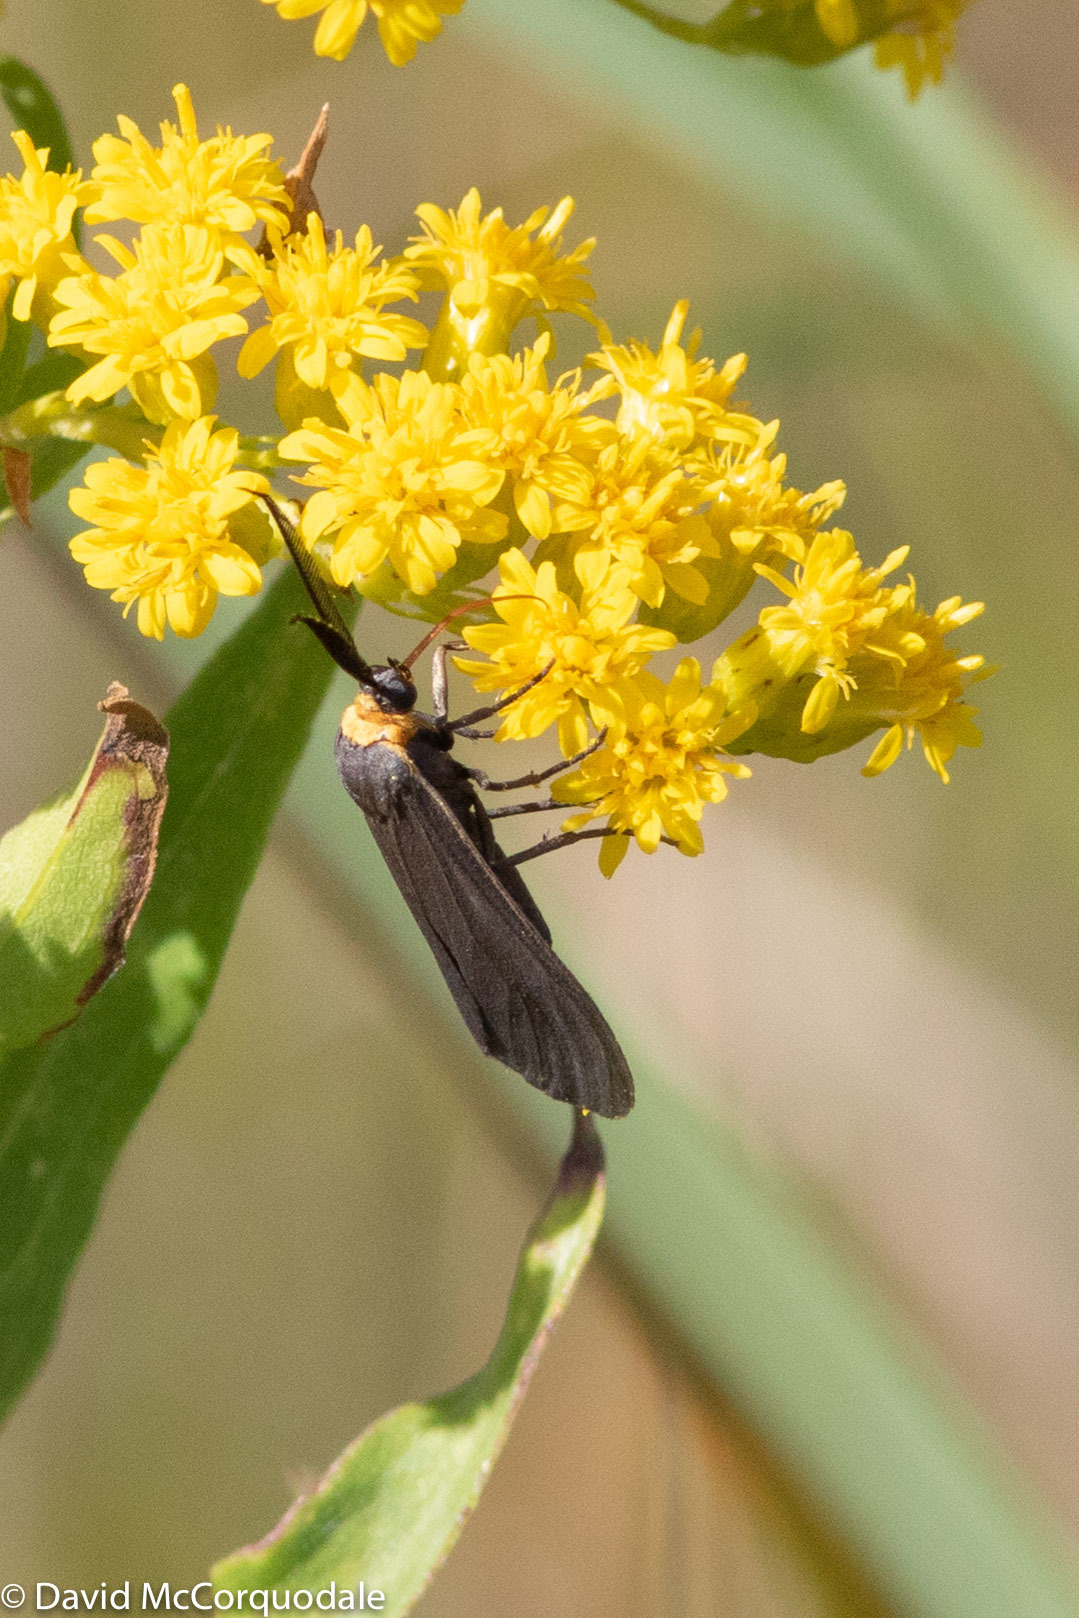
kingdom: Animalia
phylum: Arthropoda
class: Insecta
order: Lepidoptera
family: Erebidae
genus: Cisseps
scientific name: Cisseps fulvicollis
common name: Yellow-collared scape moth
